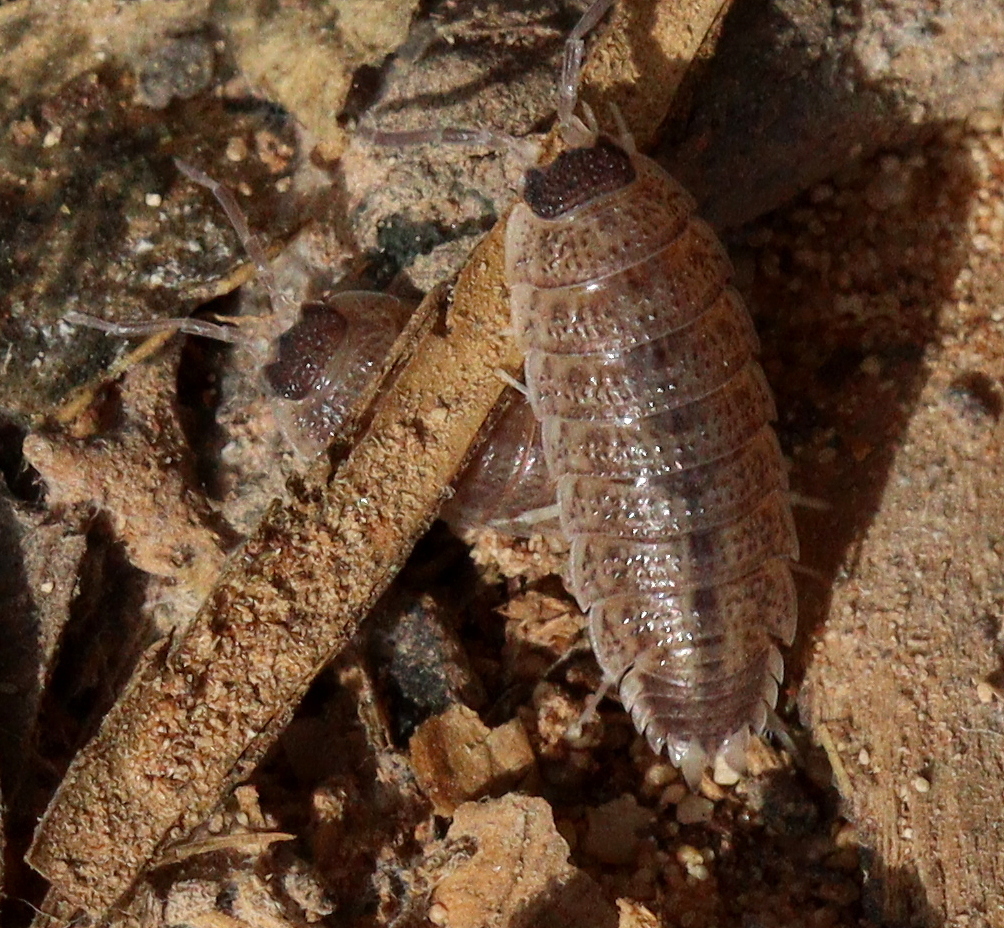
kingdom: Animalia
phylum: Arthropoda
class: Malacostraca
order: Isopoda
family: Porcellionidae
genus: Porcellio
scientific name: Porcellio evansi
